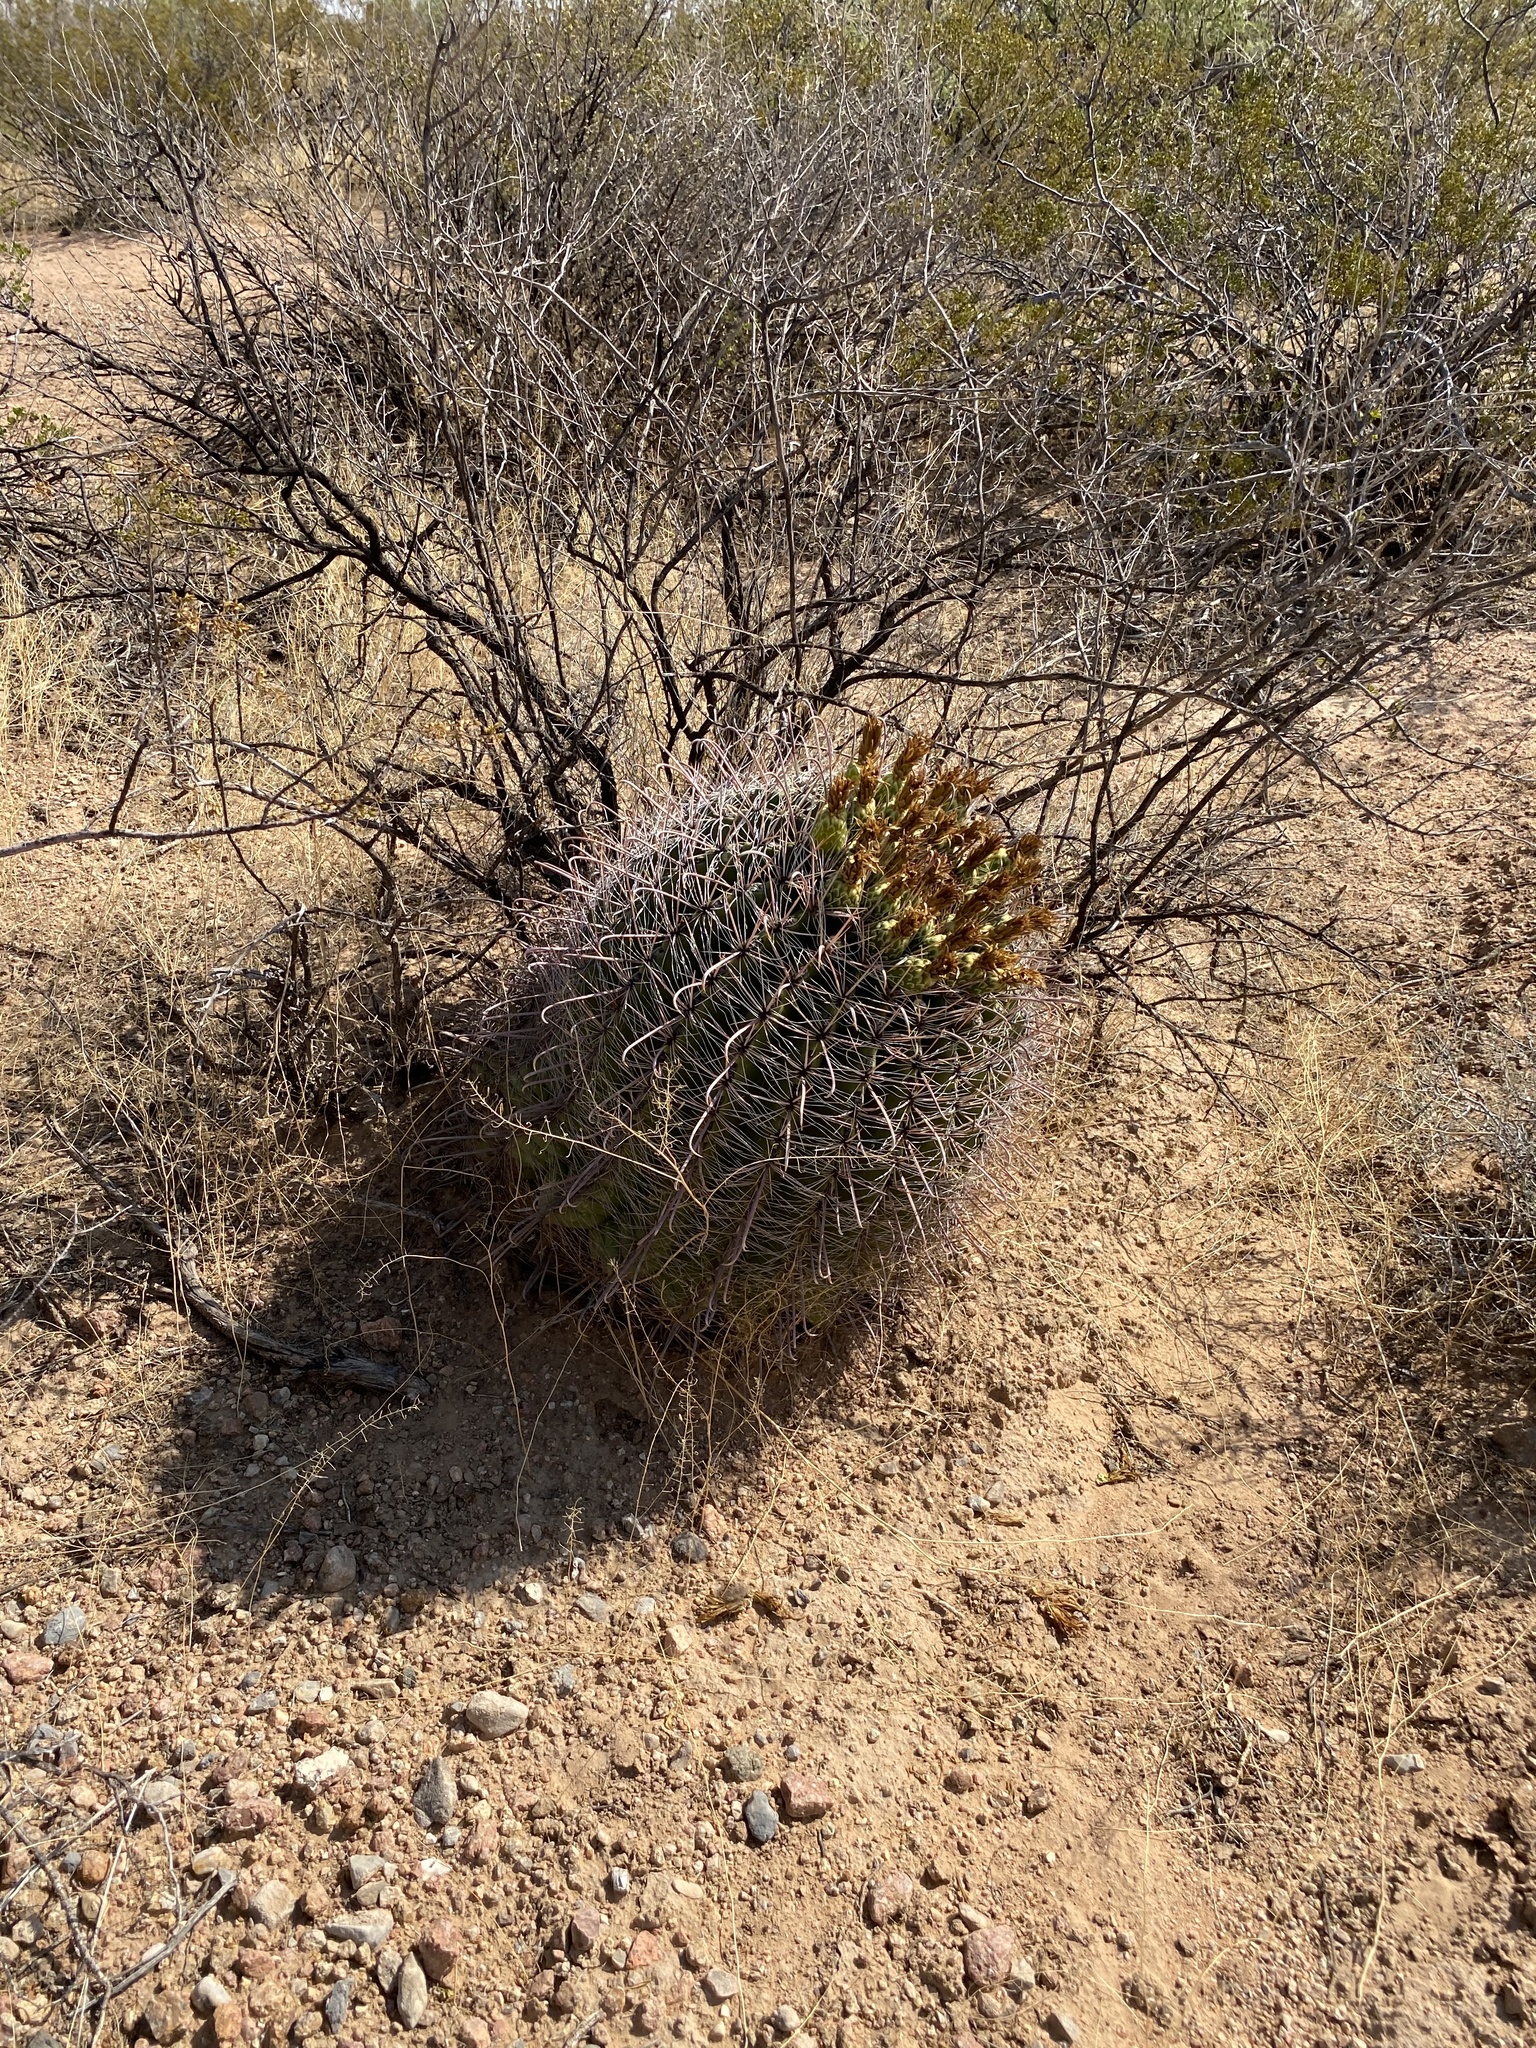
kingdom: Plantae
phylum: Tracheophyta
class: Magnoliopsida
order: Caryophyllales
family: Cactaceae
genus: Ferocactus
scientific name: Ferocactus wislizeni
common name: Candy barrel cactus
